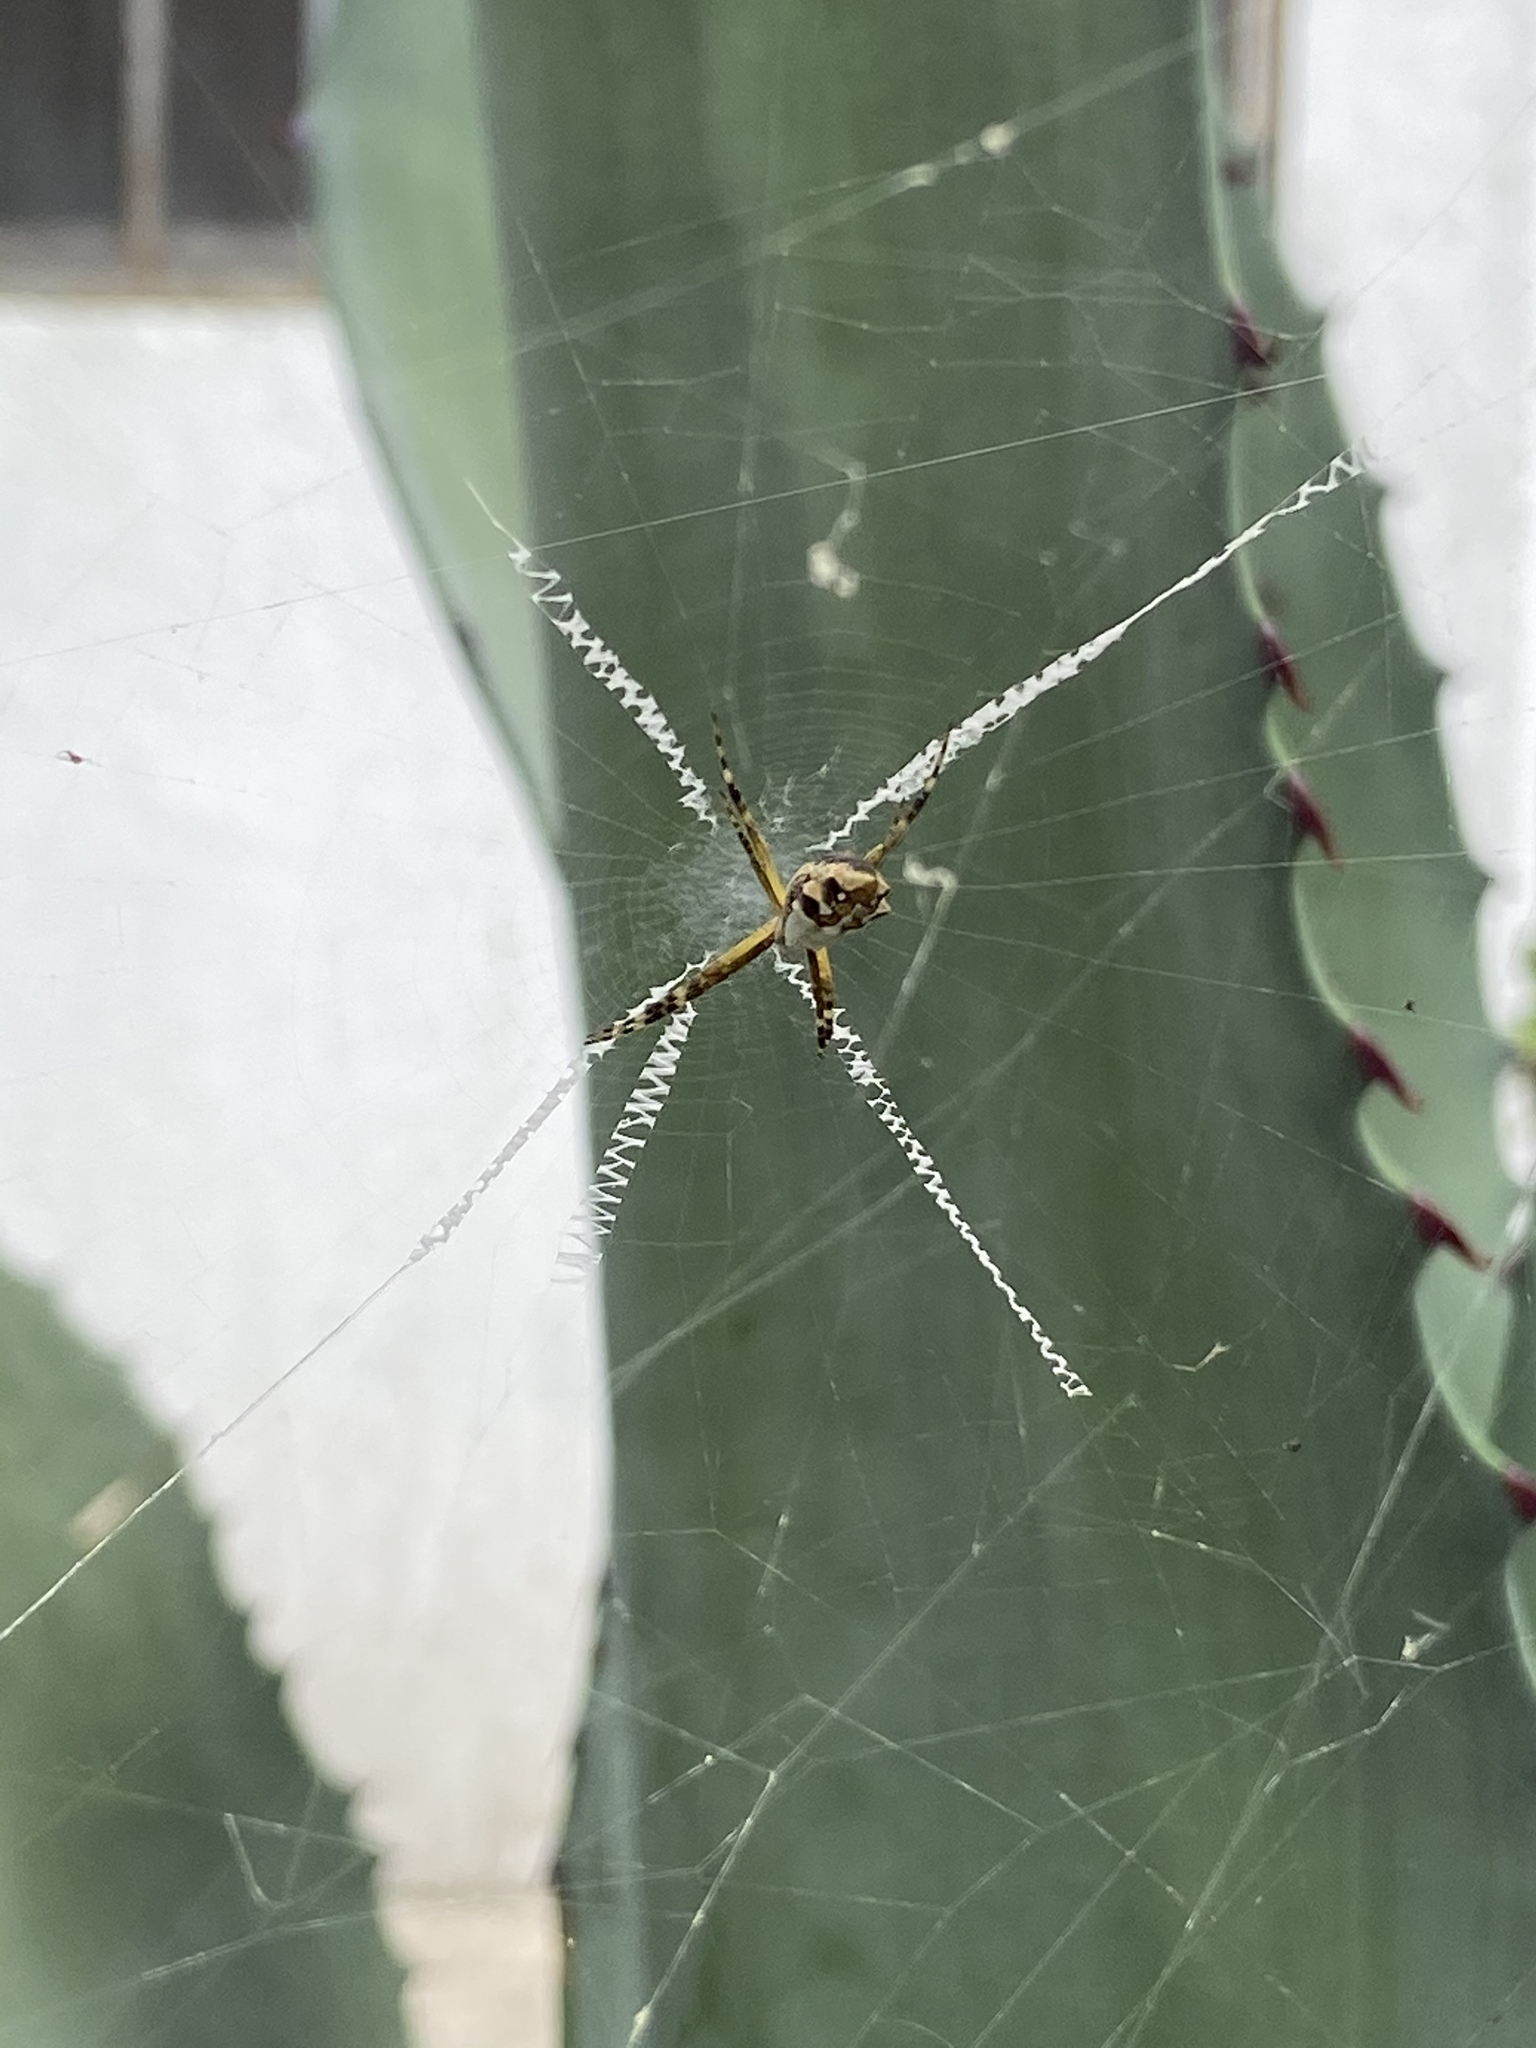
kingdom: Animalia
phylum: Arthropoda
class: Arachnida
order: Araneae
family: Araneidae
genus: Argiope
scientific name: Argiope argentata
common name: Orb weavers
